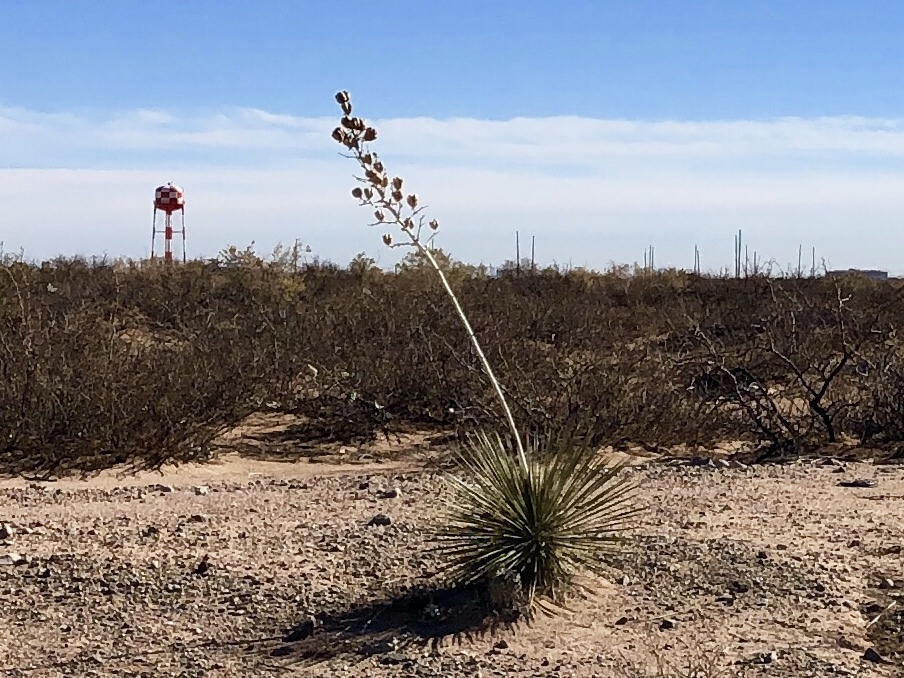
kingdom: Plantae
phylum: Tracheophyta
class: Liliopsida
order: Asparagales
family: Asparagaceae
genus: Yucca
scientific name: Yucca elata
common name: Palmella
